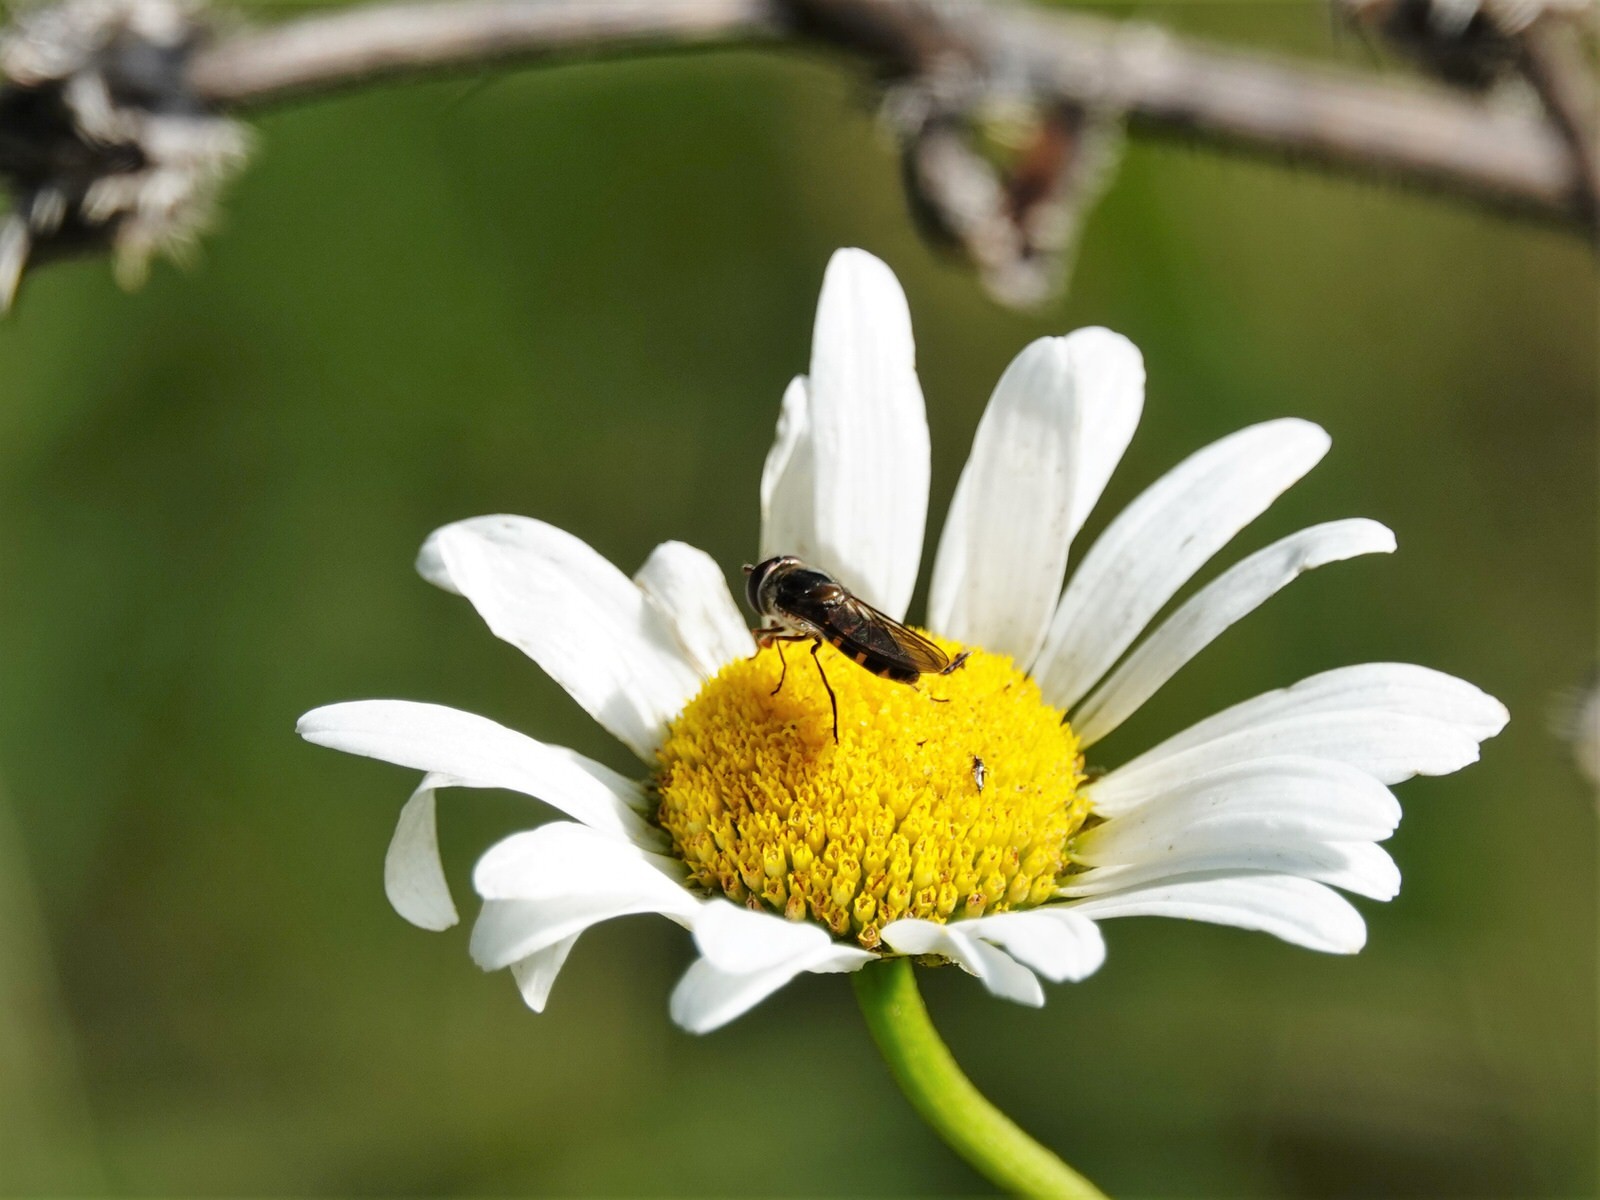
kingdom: Animalia
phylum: Arthropoda
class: Insecta
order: Diptera
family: Syrphidae
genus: Melangyna
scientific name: Melangyna novaezelandiae
